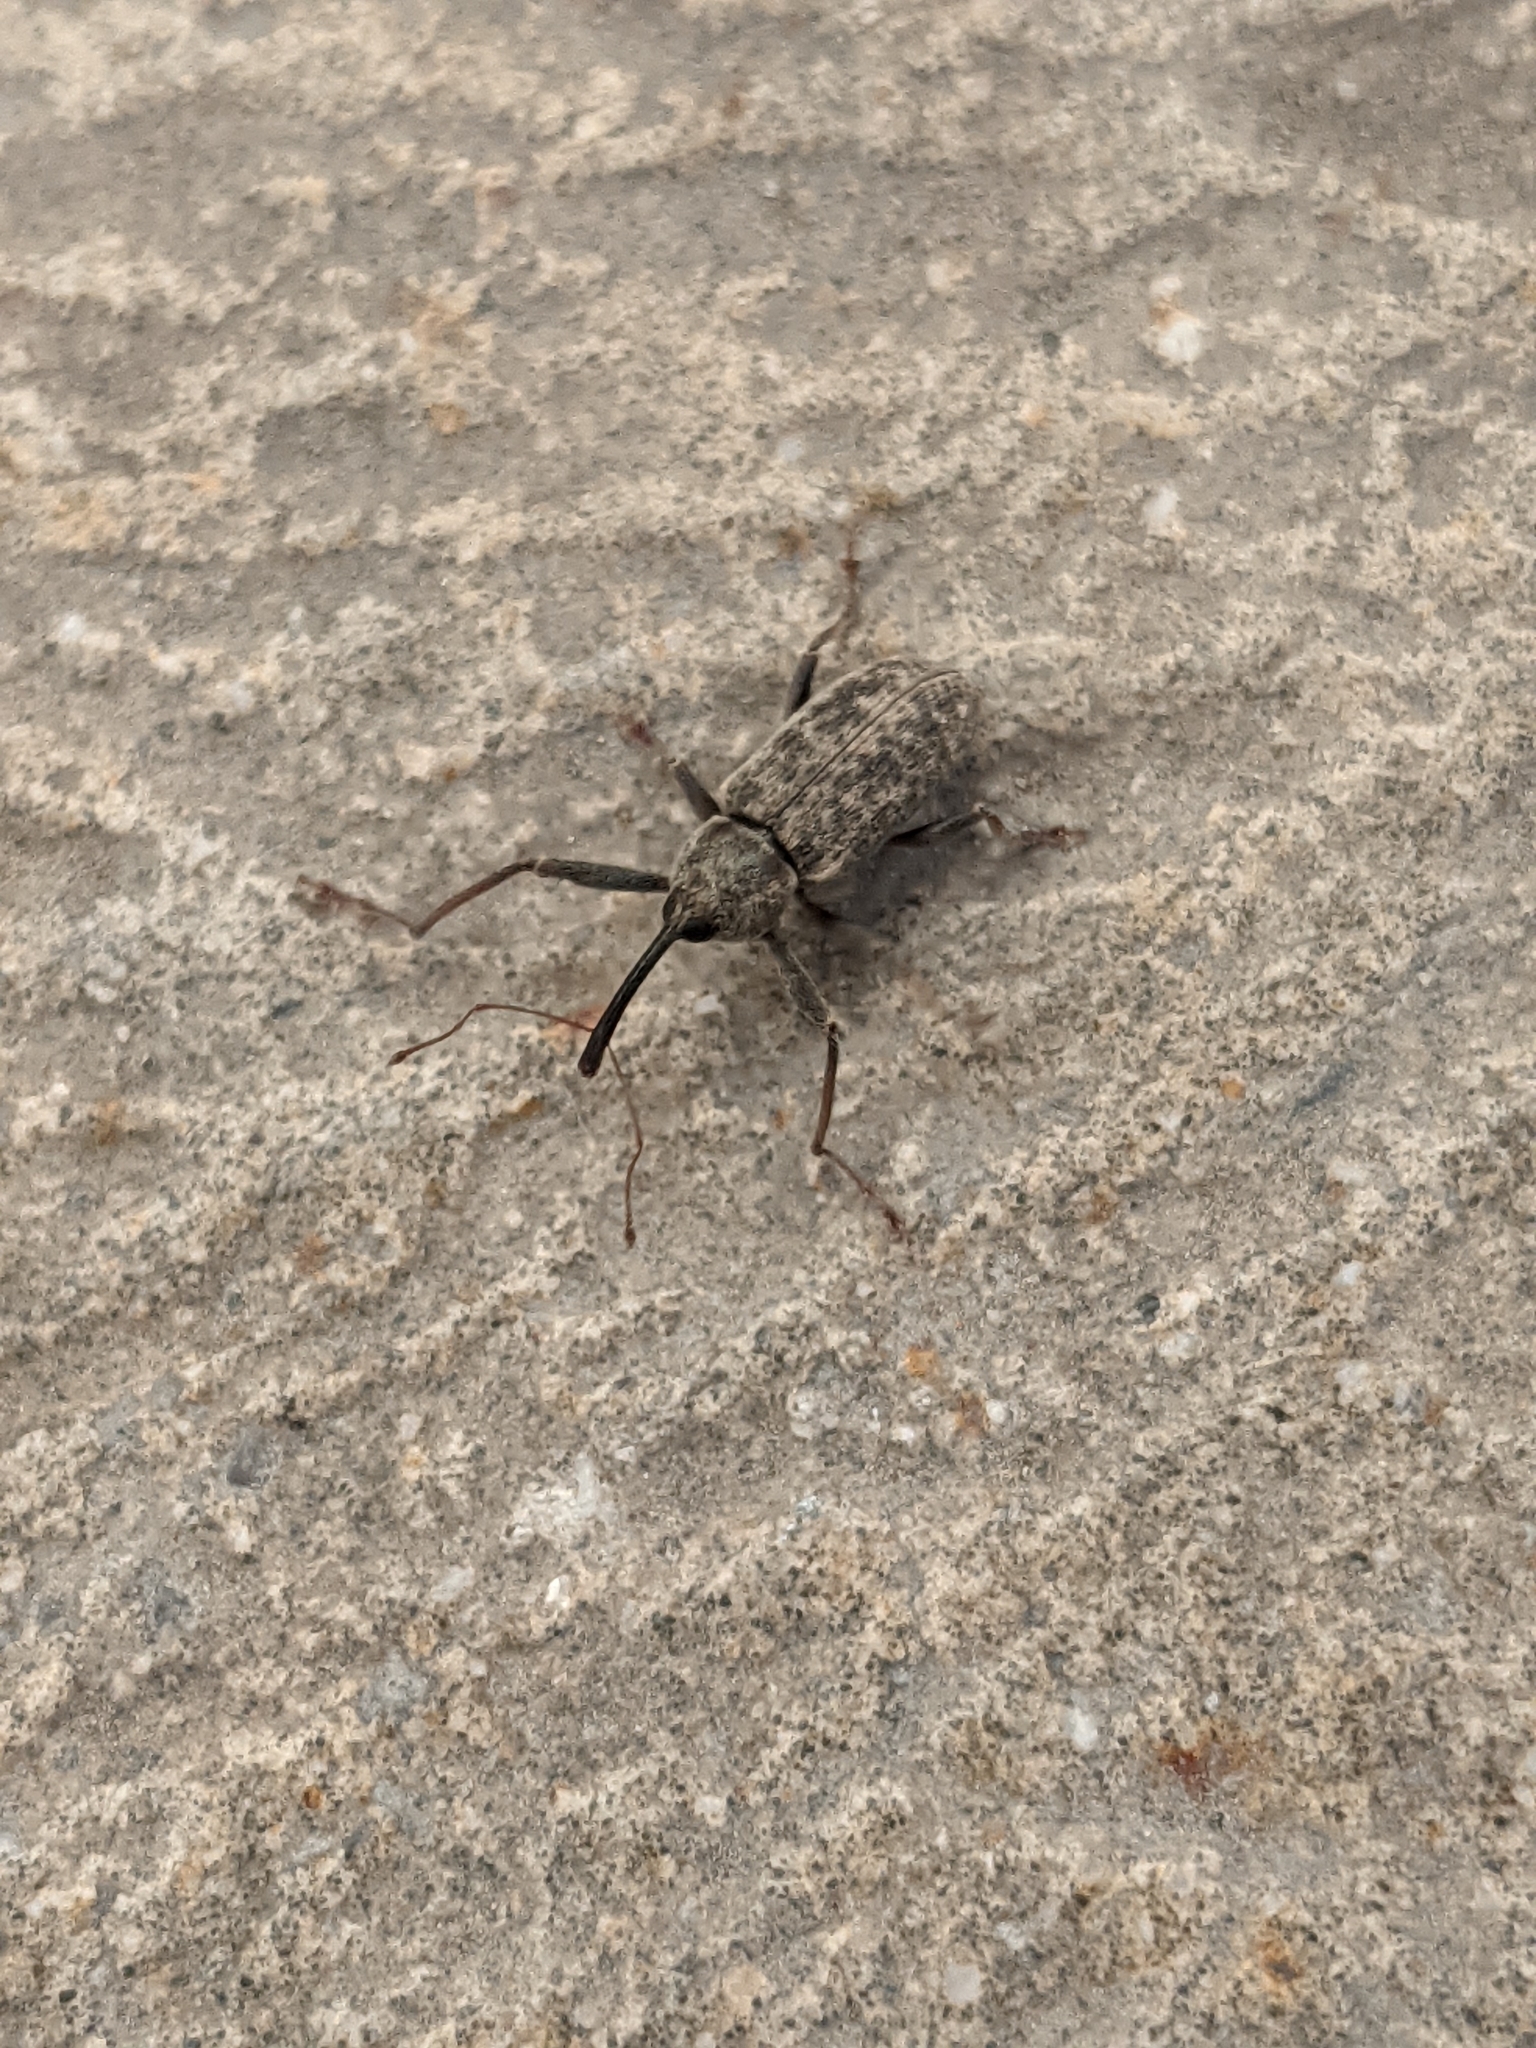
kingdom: Animalia
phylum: Arthropoda
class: Insecta
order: Coleoptera
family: Curculionidae
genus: Dorytomus
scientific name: Dorytomus longimanus
